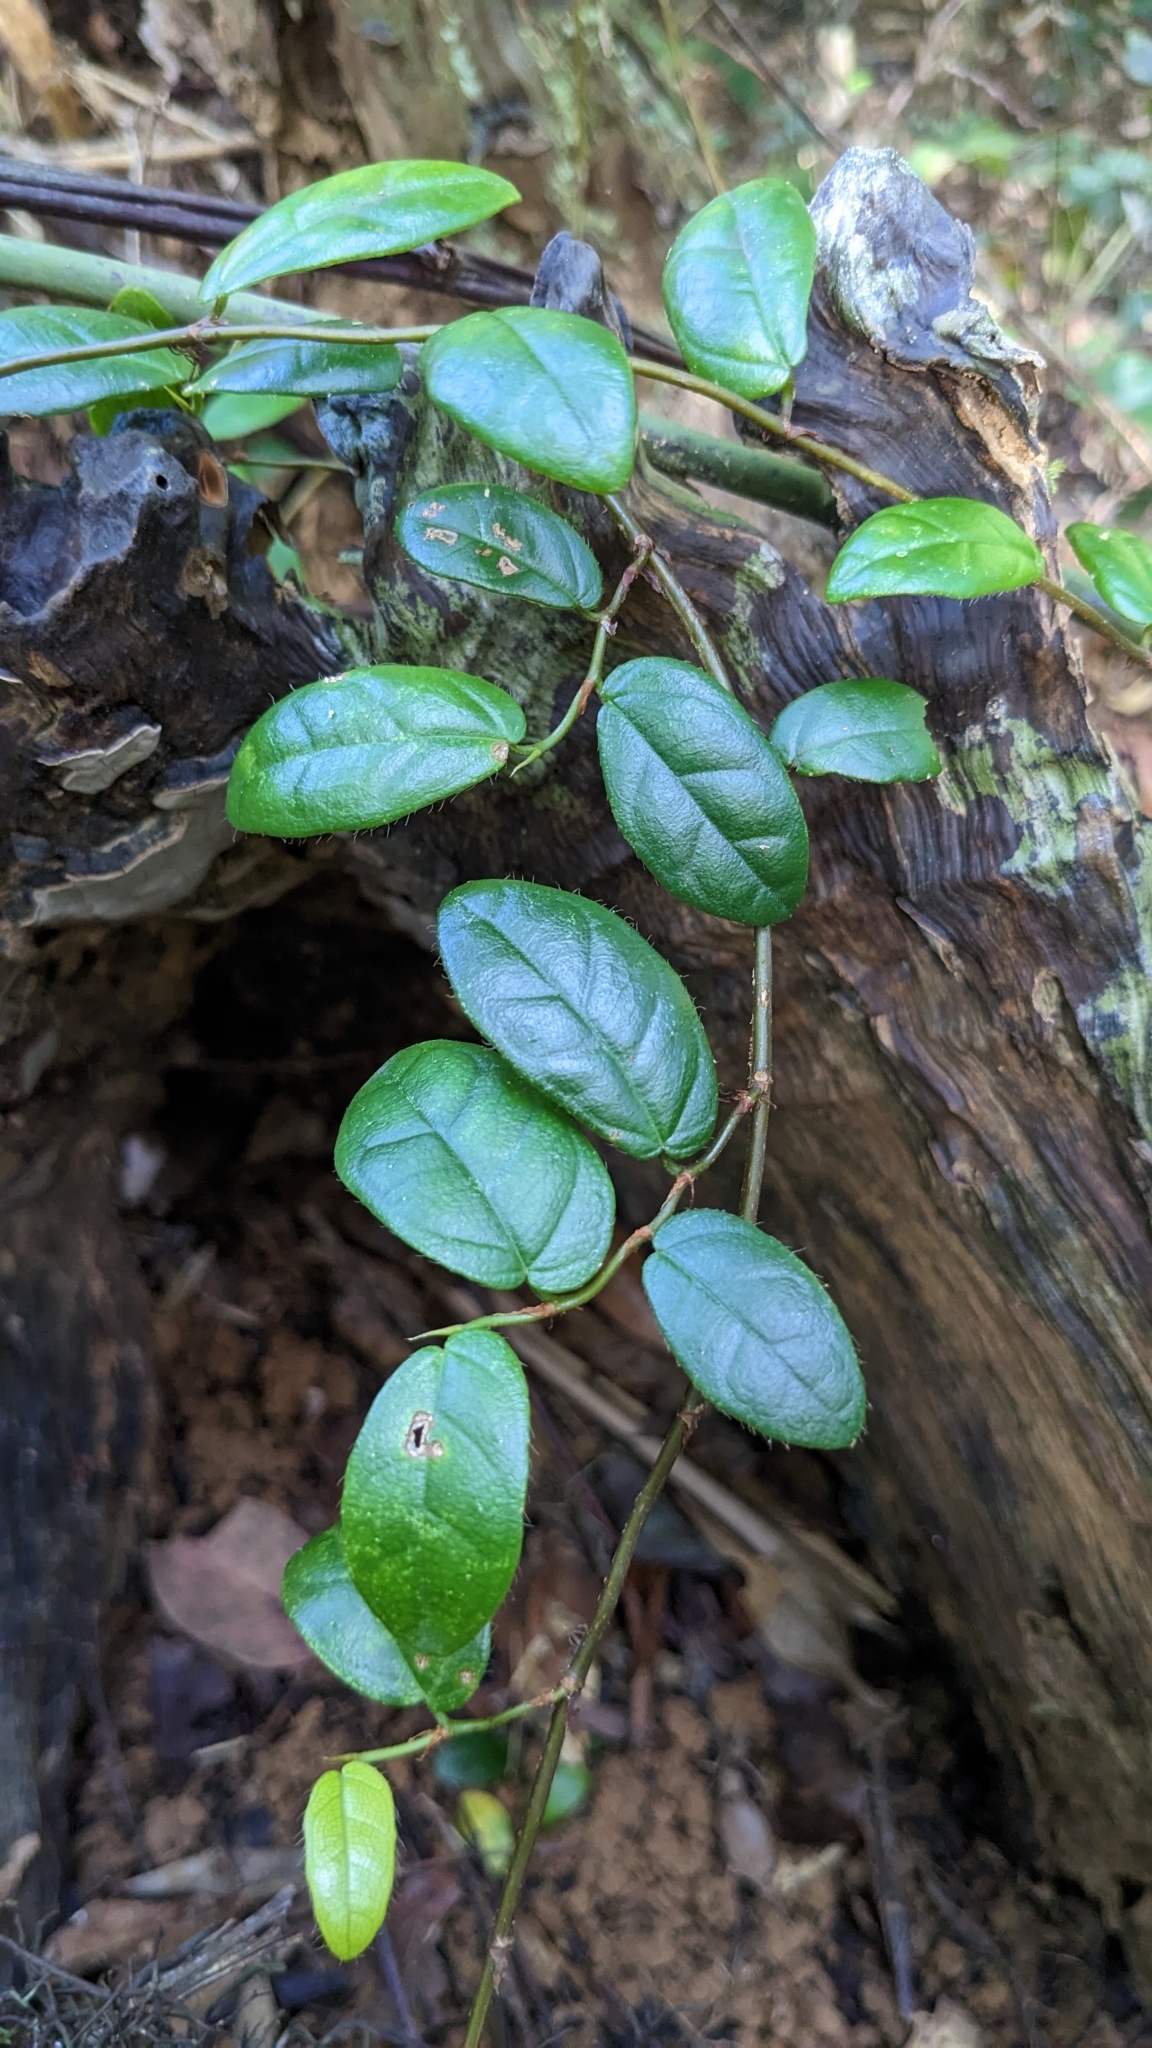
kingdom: Plantae
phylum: Tracheophyta
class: Magnoliopsida
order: Rosales
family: Moraceae
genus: Ficus
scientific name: Ficus punctata
